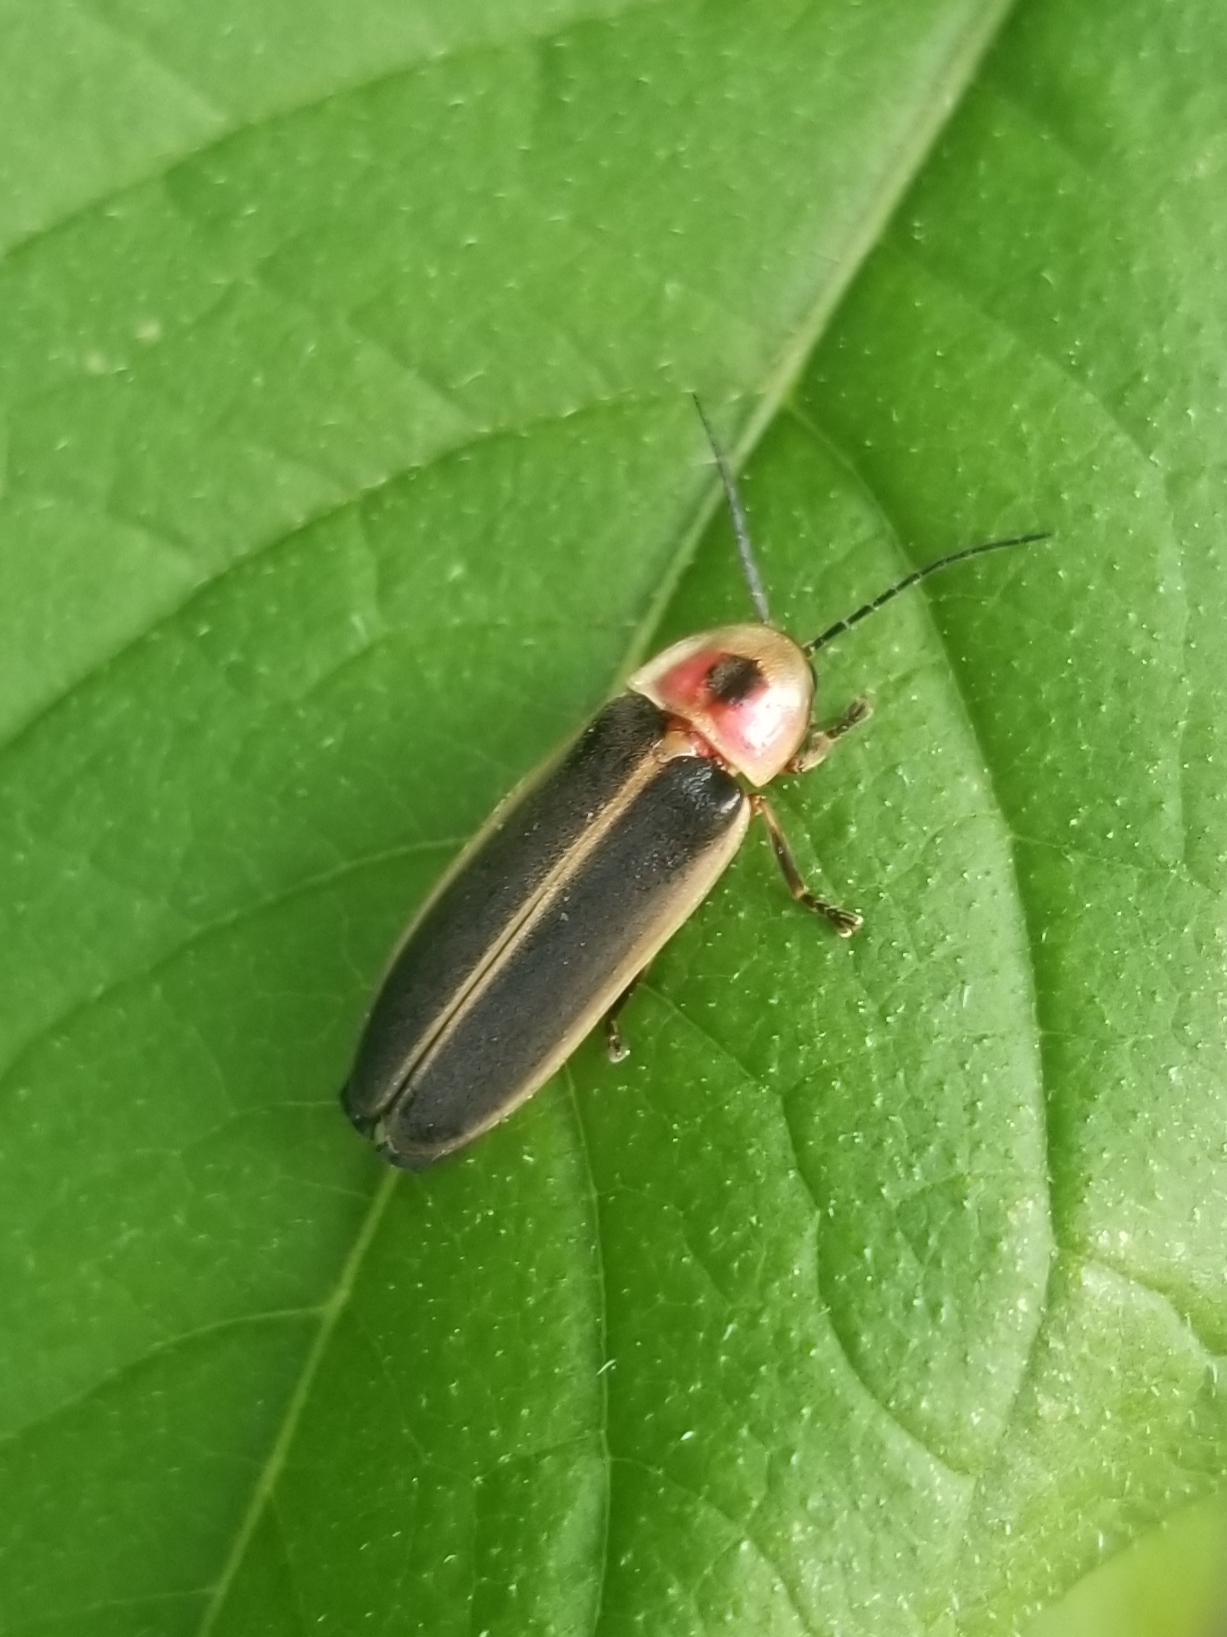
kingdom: Animalia
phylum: Arthropoda
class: Insecta
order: Coleoptera
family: Lampyridae
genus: Photinus
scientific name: Photinus pyralis
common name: Big dipper firefly
